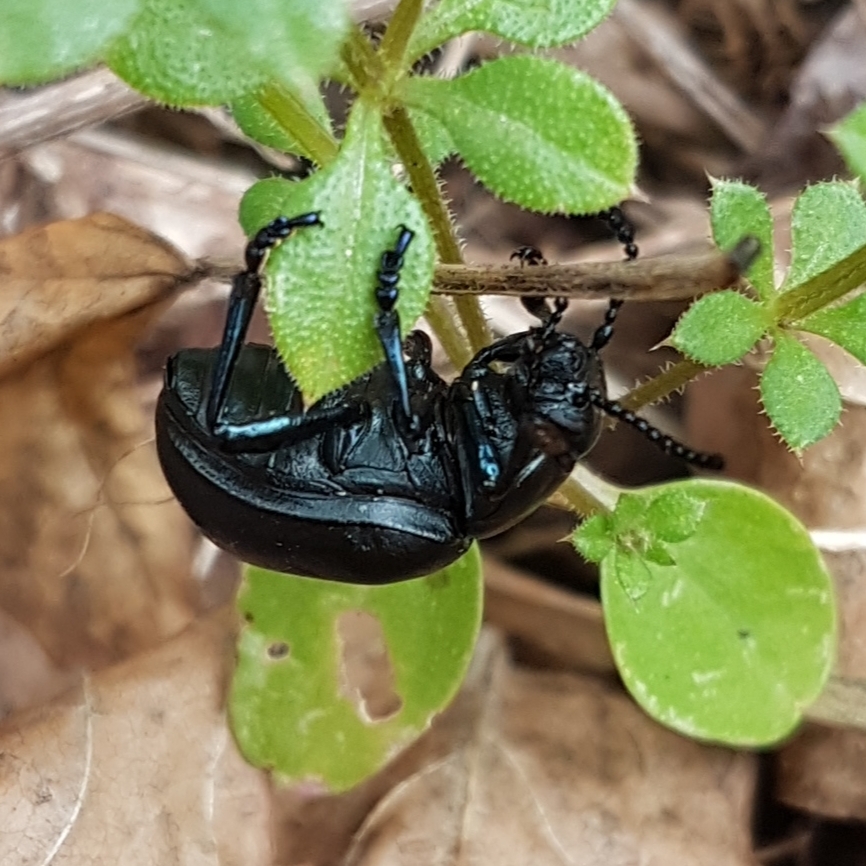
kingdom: Animalia
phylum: Arthropoda
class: Insecta
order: Coleoptera
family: Chrysomelidae
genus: Timarcha
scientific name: Timarcha tenebricosa
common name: Bloody-nosed beetle
